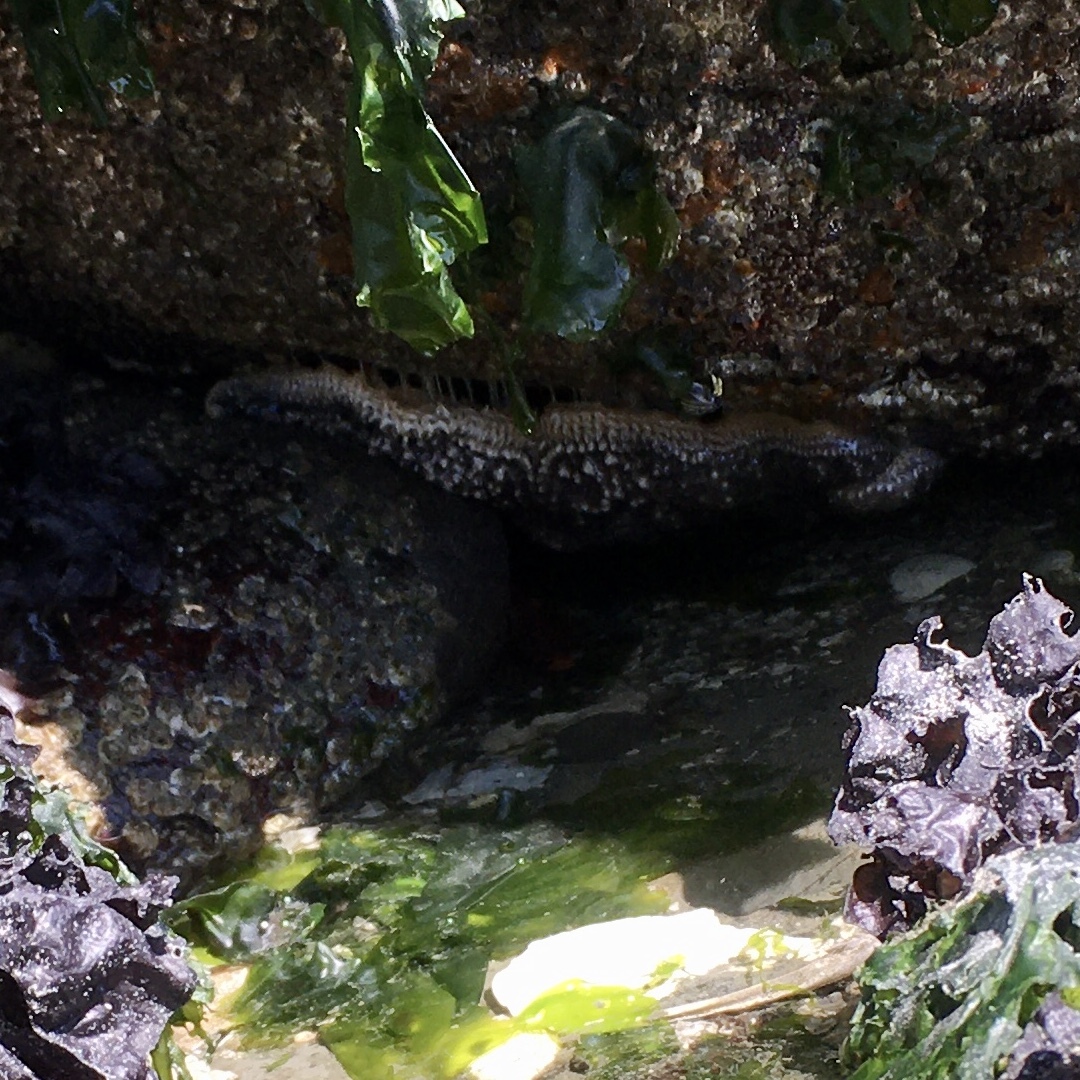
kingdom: Animalia
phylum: Echinodermata
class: Asteroidea
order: Forcipulatida
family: Asteriidae
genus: Evasterias
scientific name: Evasterias troschelii
